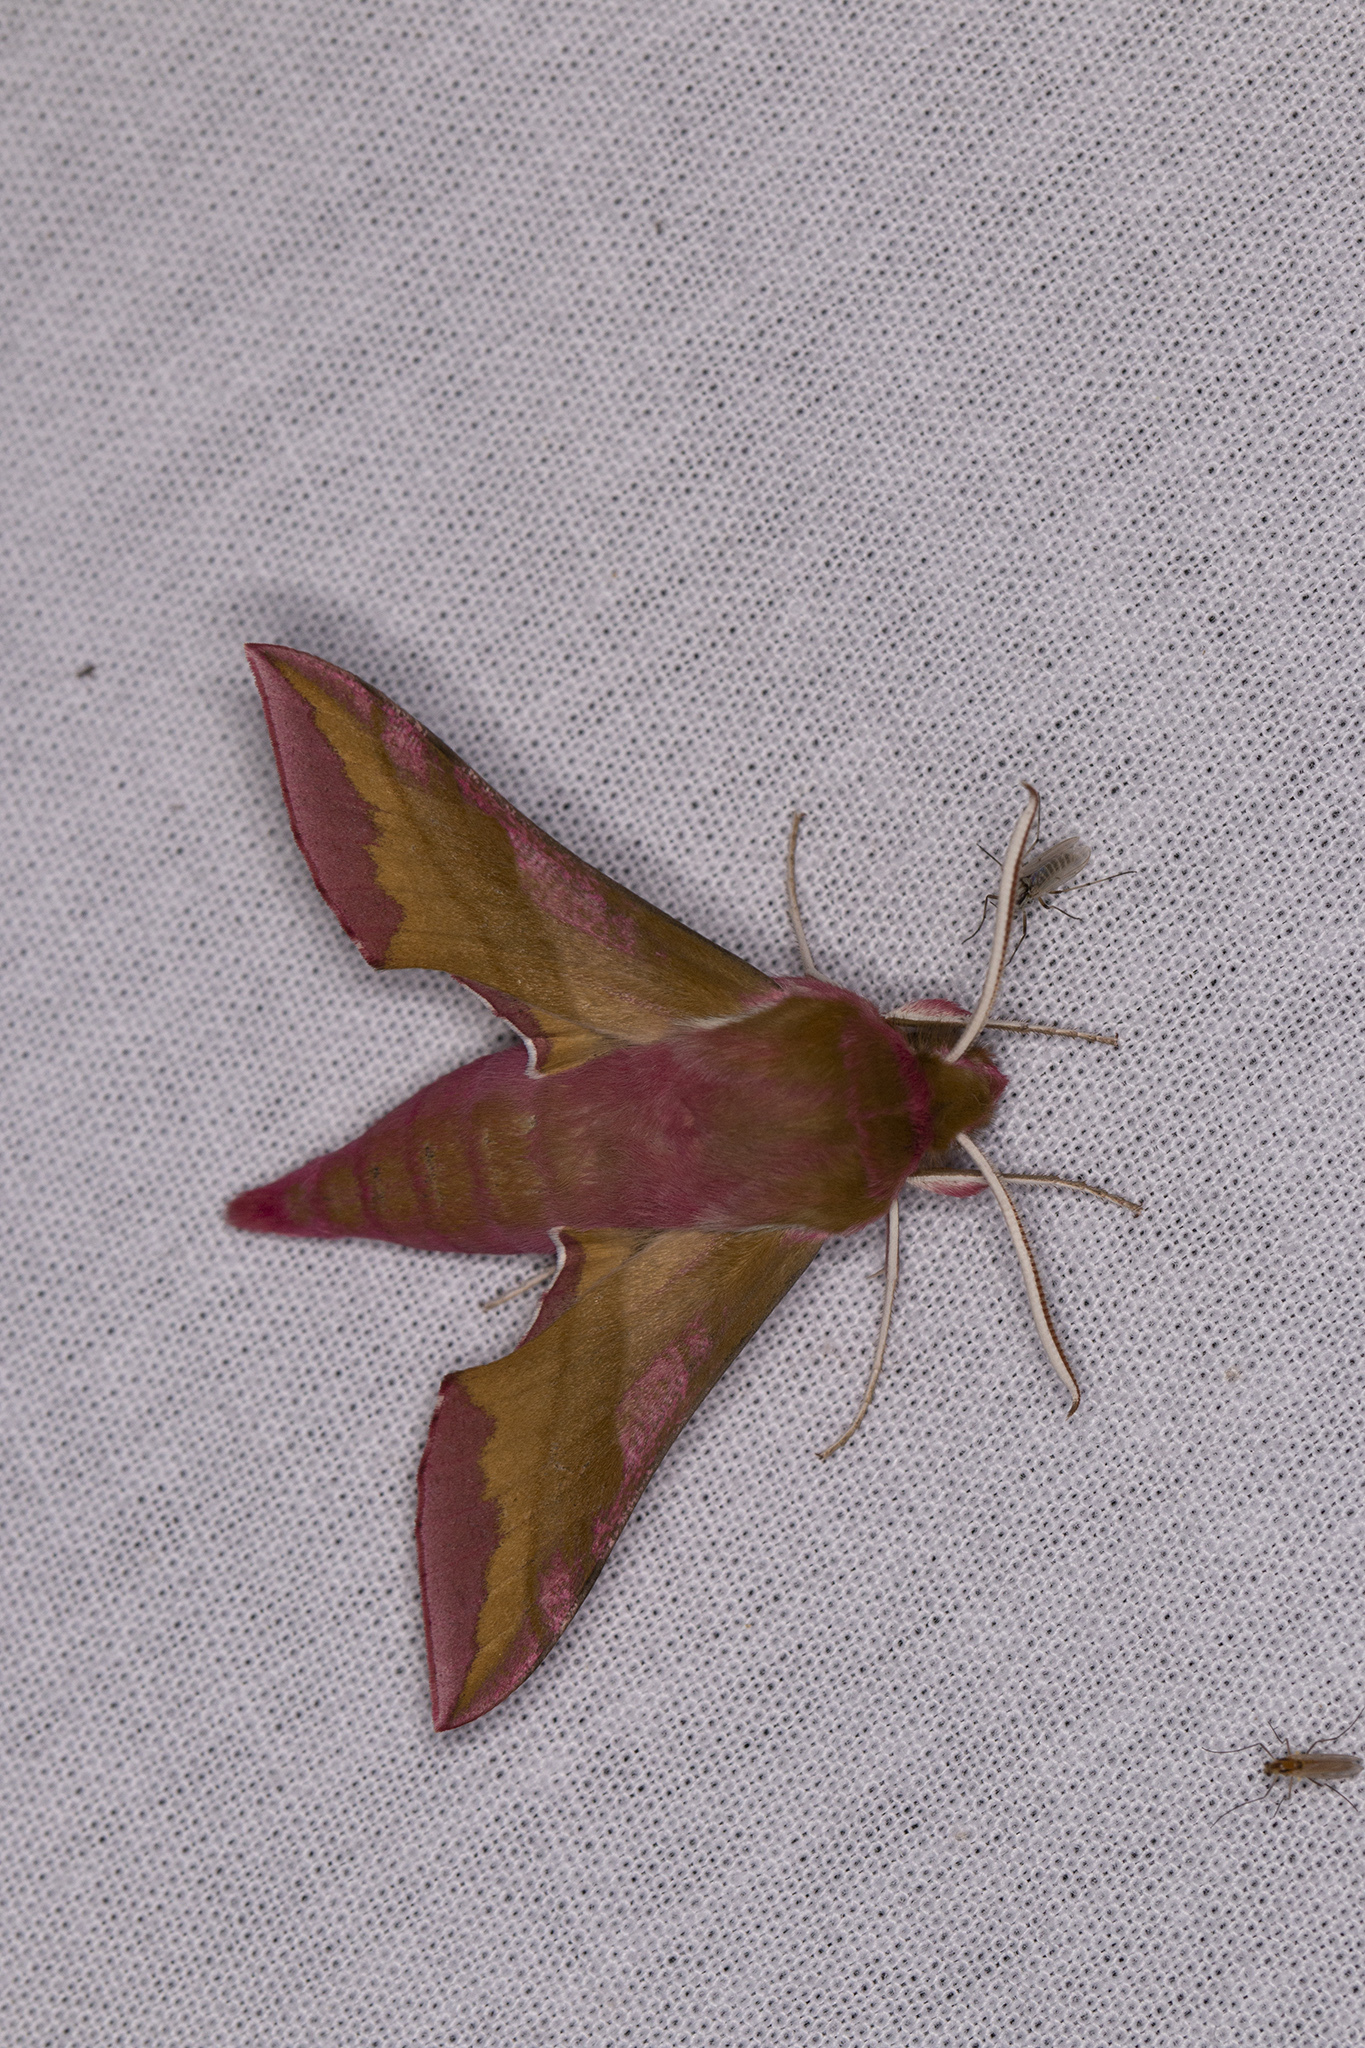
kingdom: Animalia
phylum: Arthropoda
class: Insecta
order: Lepidoptera
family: Sphingidae
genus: Deilephila
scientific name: Deilephila porcellus
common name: Small elephant hawk-moth
